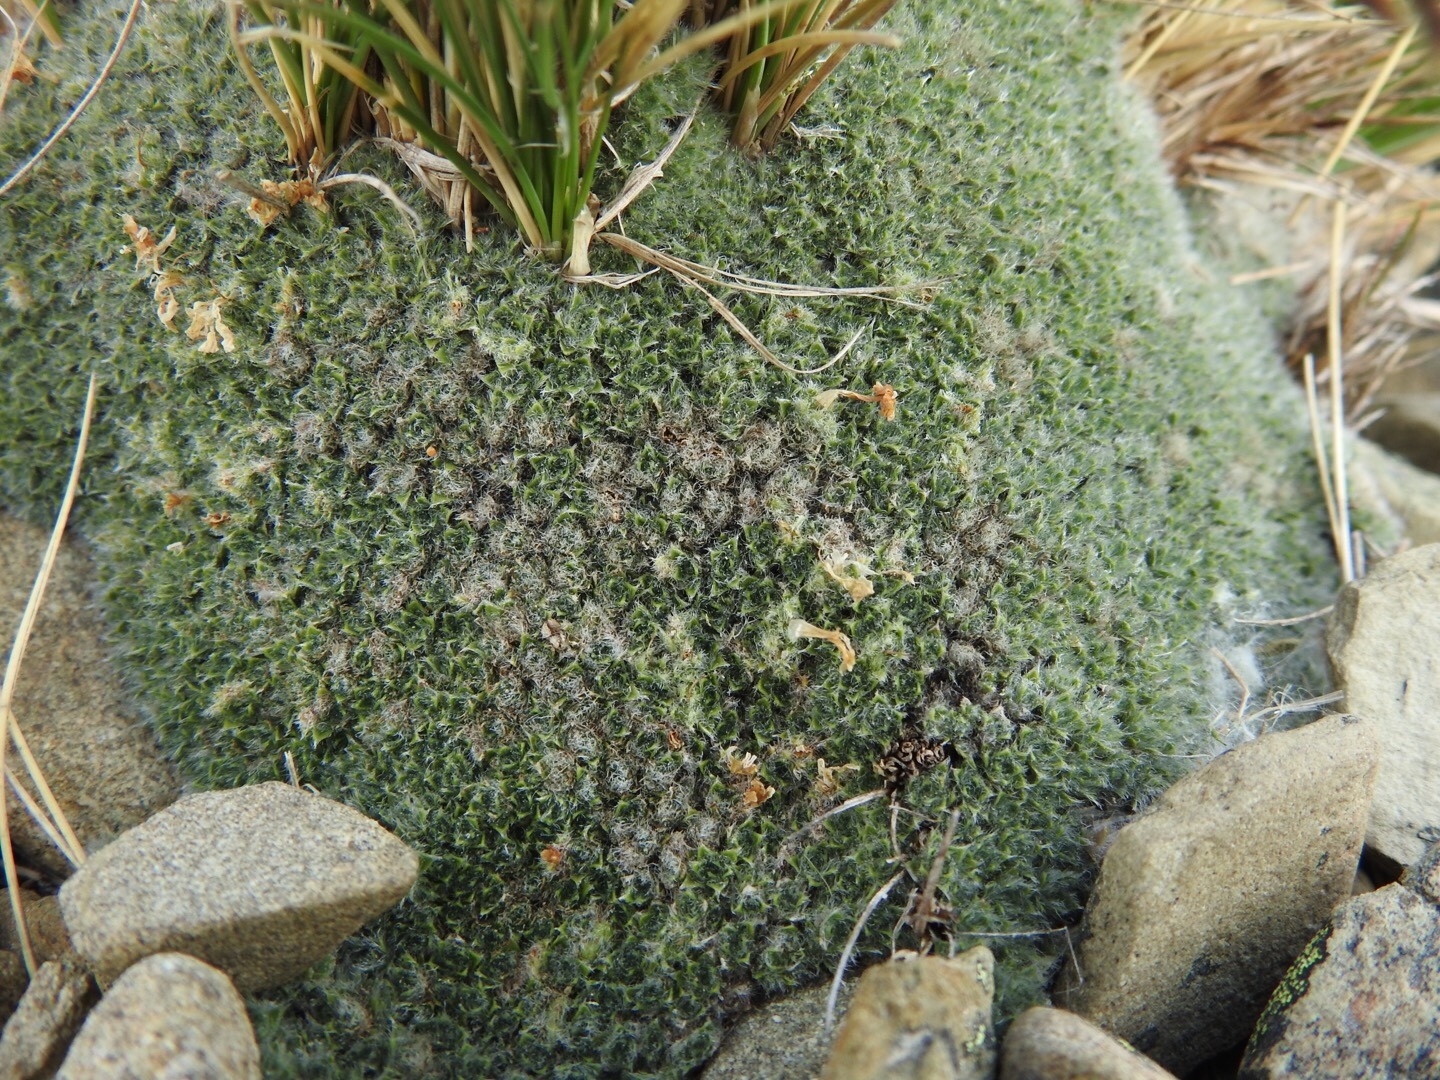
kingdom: Plantae
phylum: Tracheophyta
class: Magnoliopsida
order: Lamiales
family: Plantaginaceae
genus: Veronica
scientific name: Veronica thomsonii
